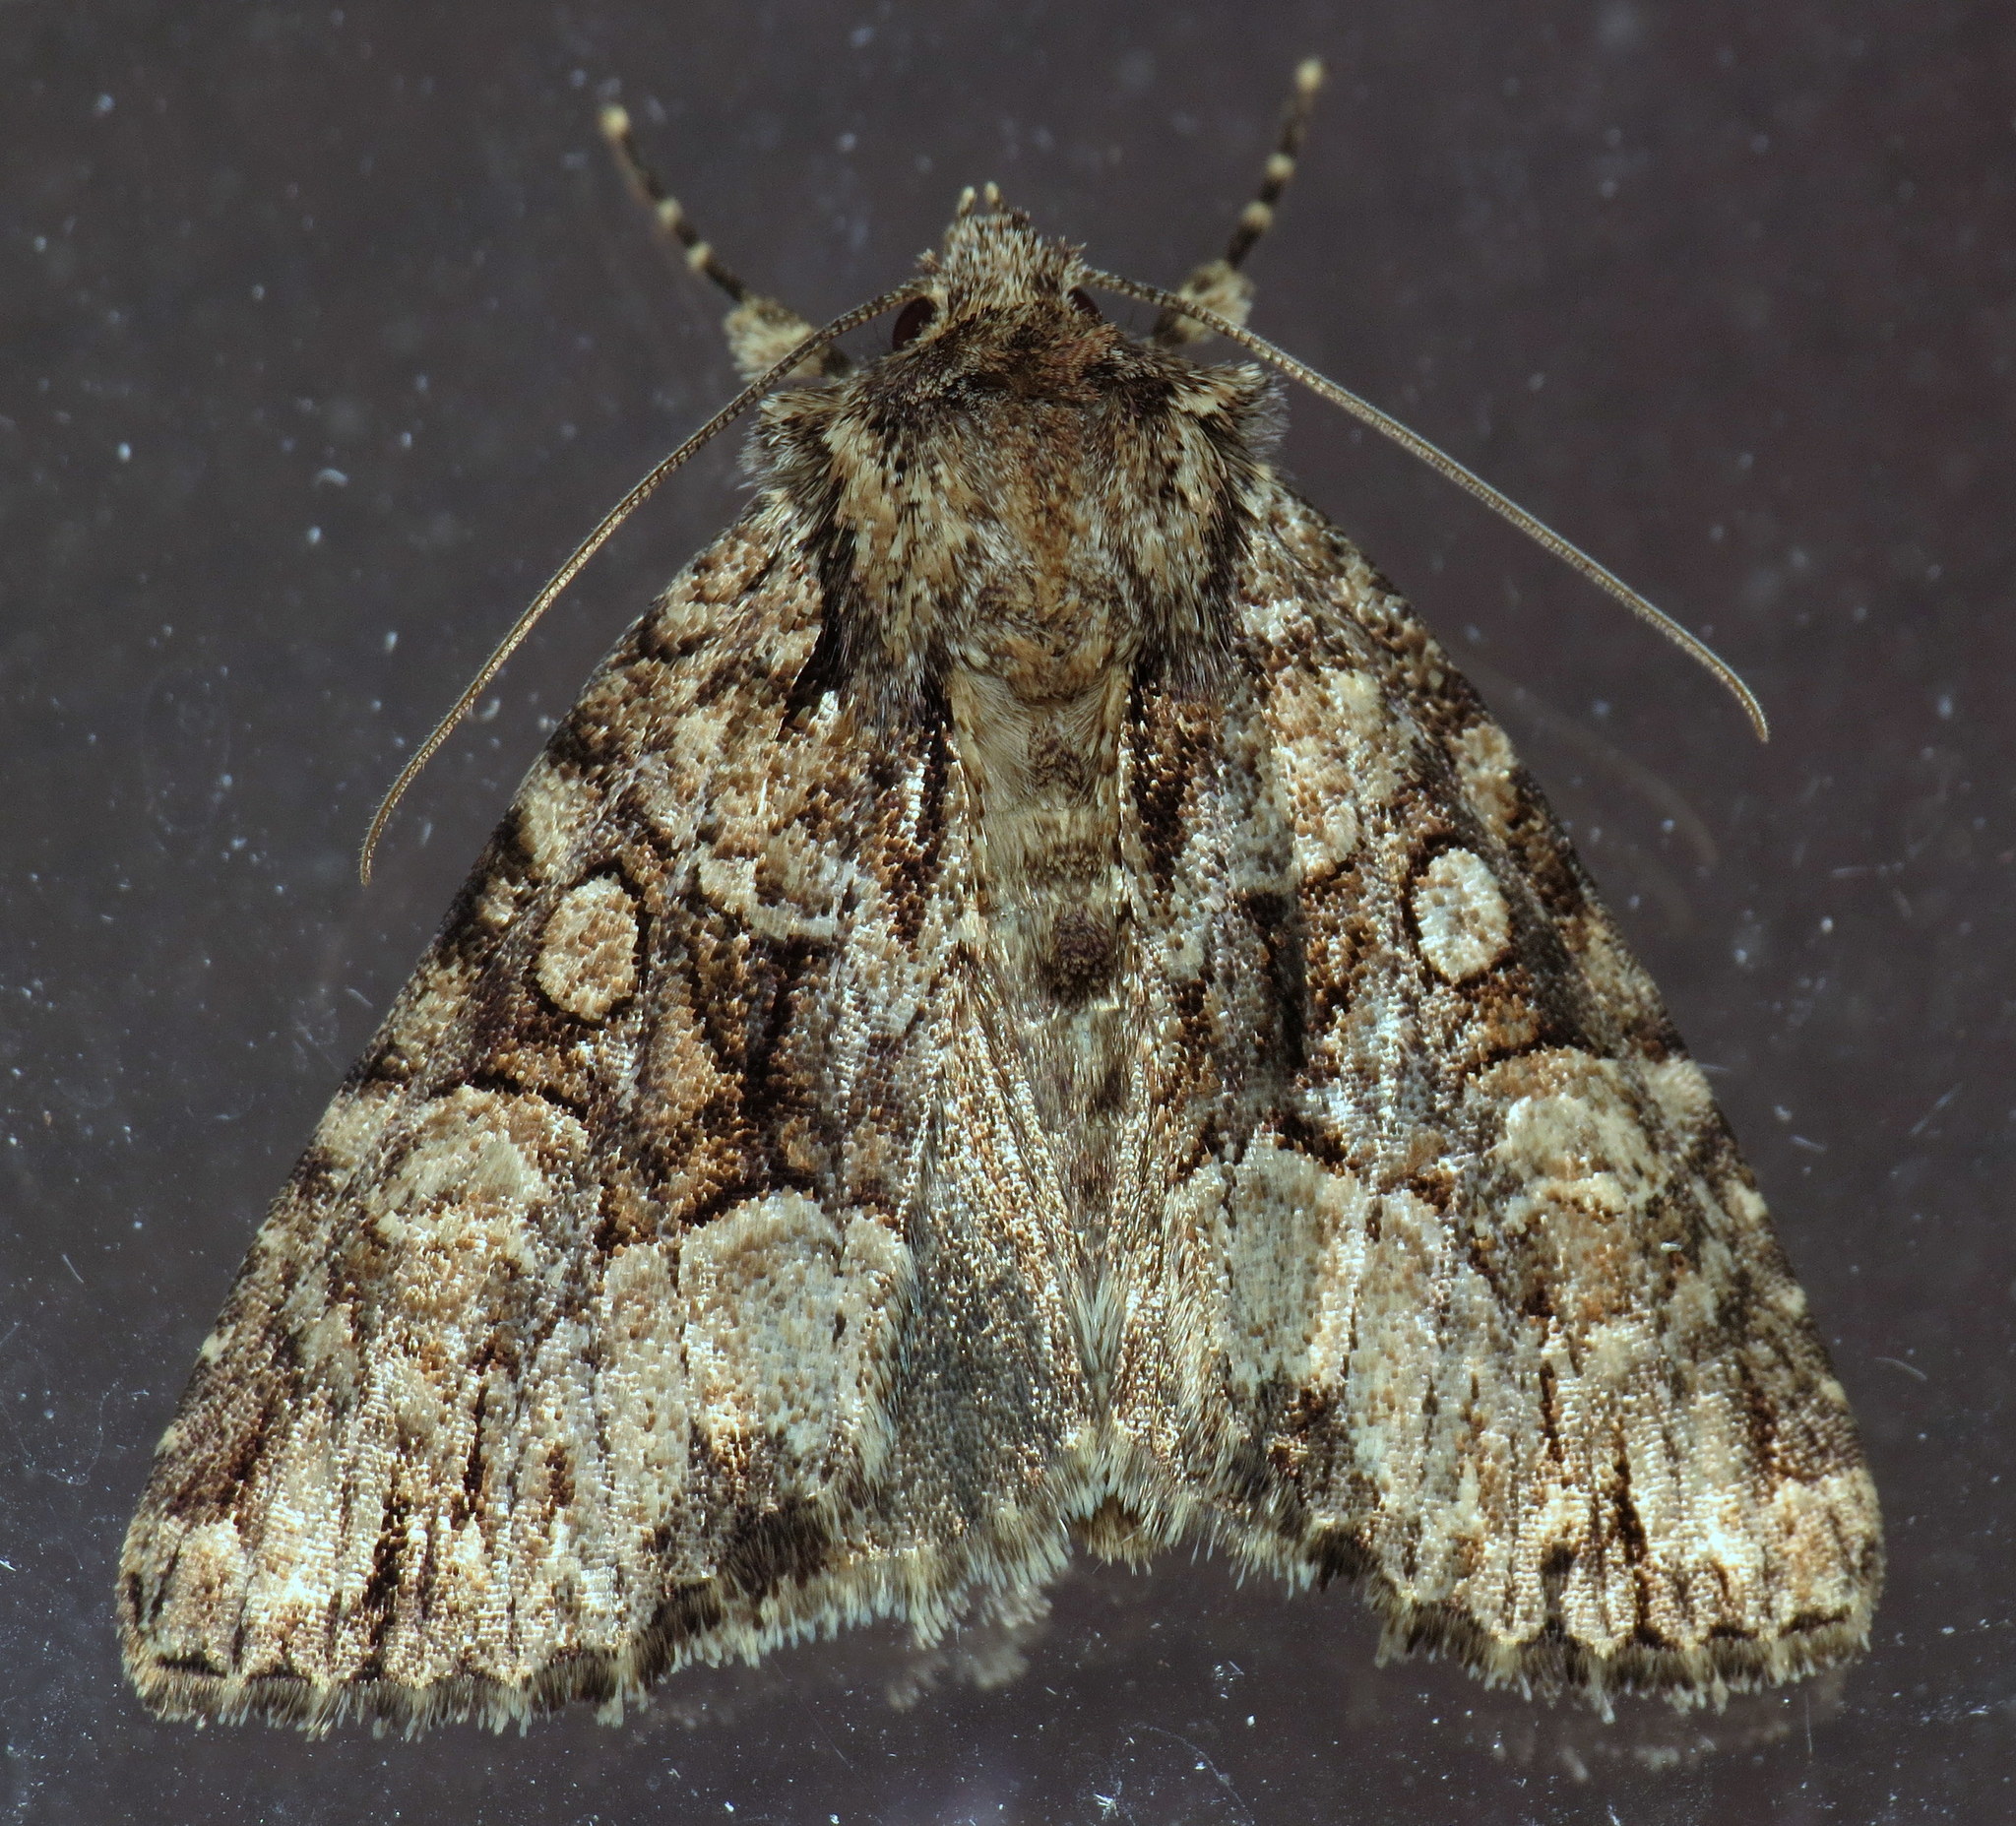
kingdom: Animalia
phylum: Arthropoda
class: Insecta
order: Lepidoptera
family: Noctuidae
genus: Platypolia
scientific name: Platypolia mactata
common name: Adorable brocade moth
